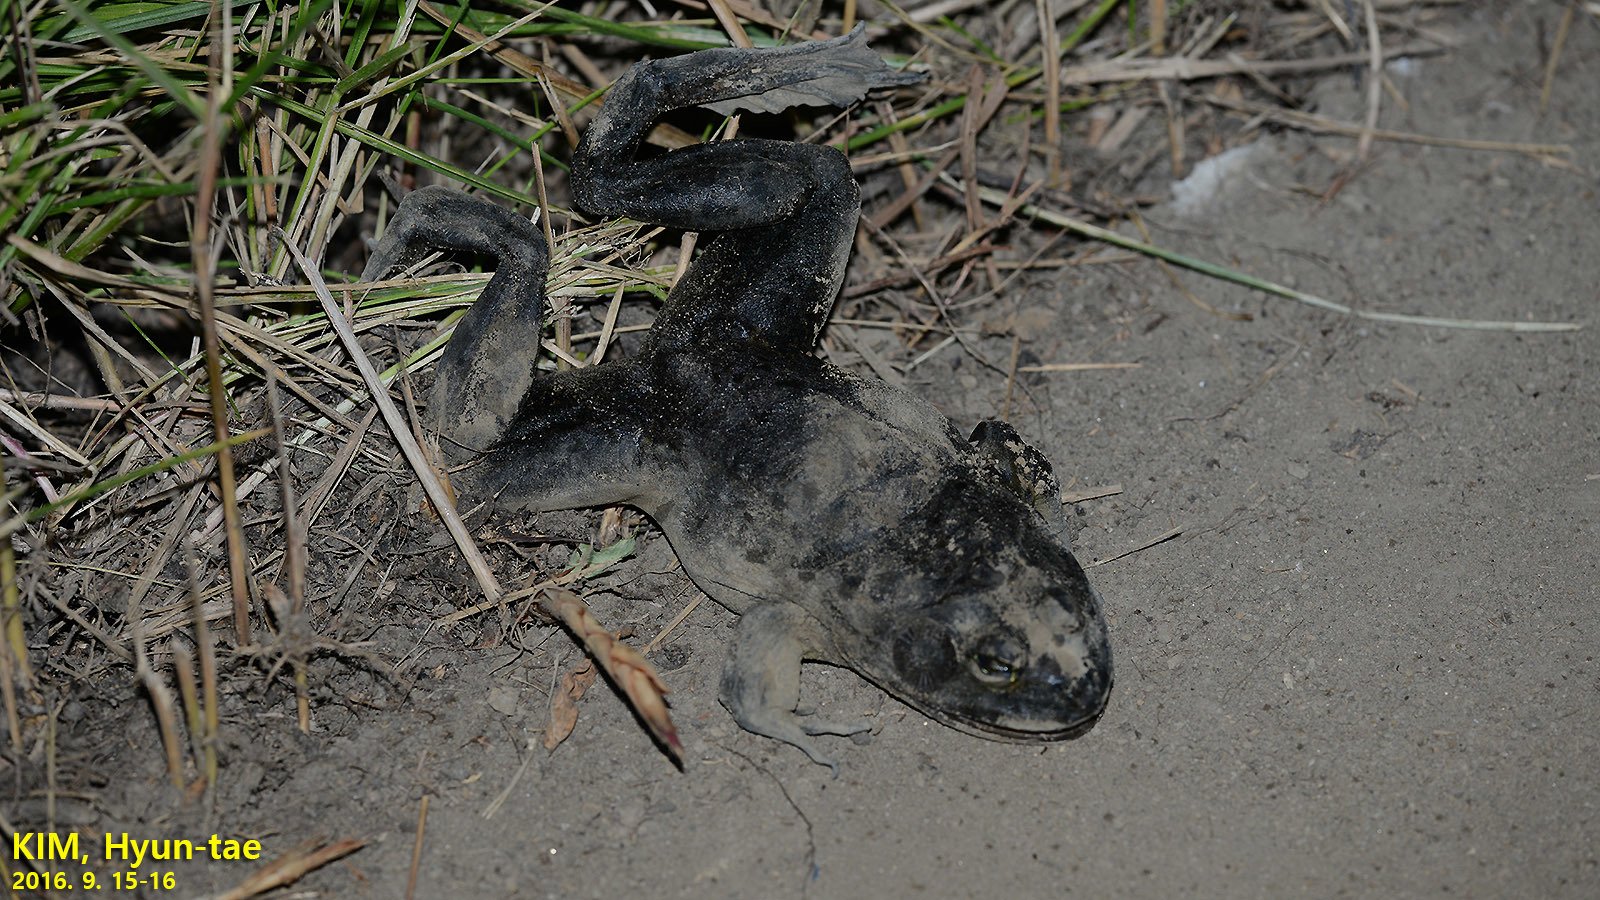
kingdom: Animalia
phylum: Chordata
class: Amphibia
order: Anura
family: Ranidae
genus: Lithobates
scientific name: Lithobates catesbeianus
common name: American bullfrog
